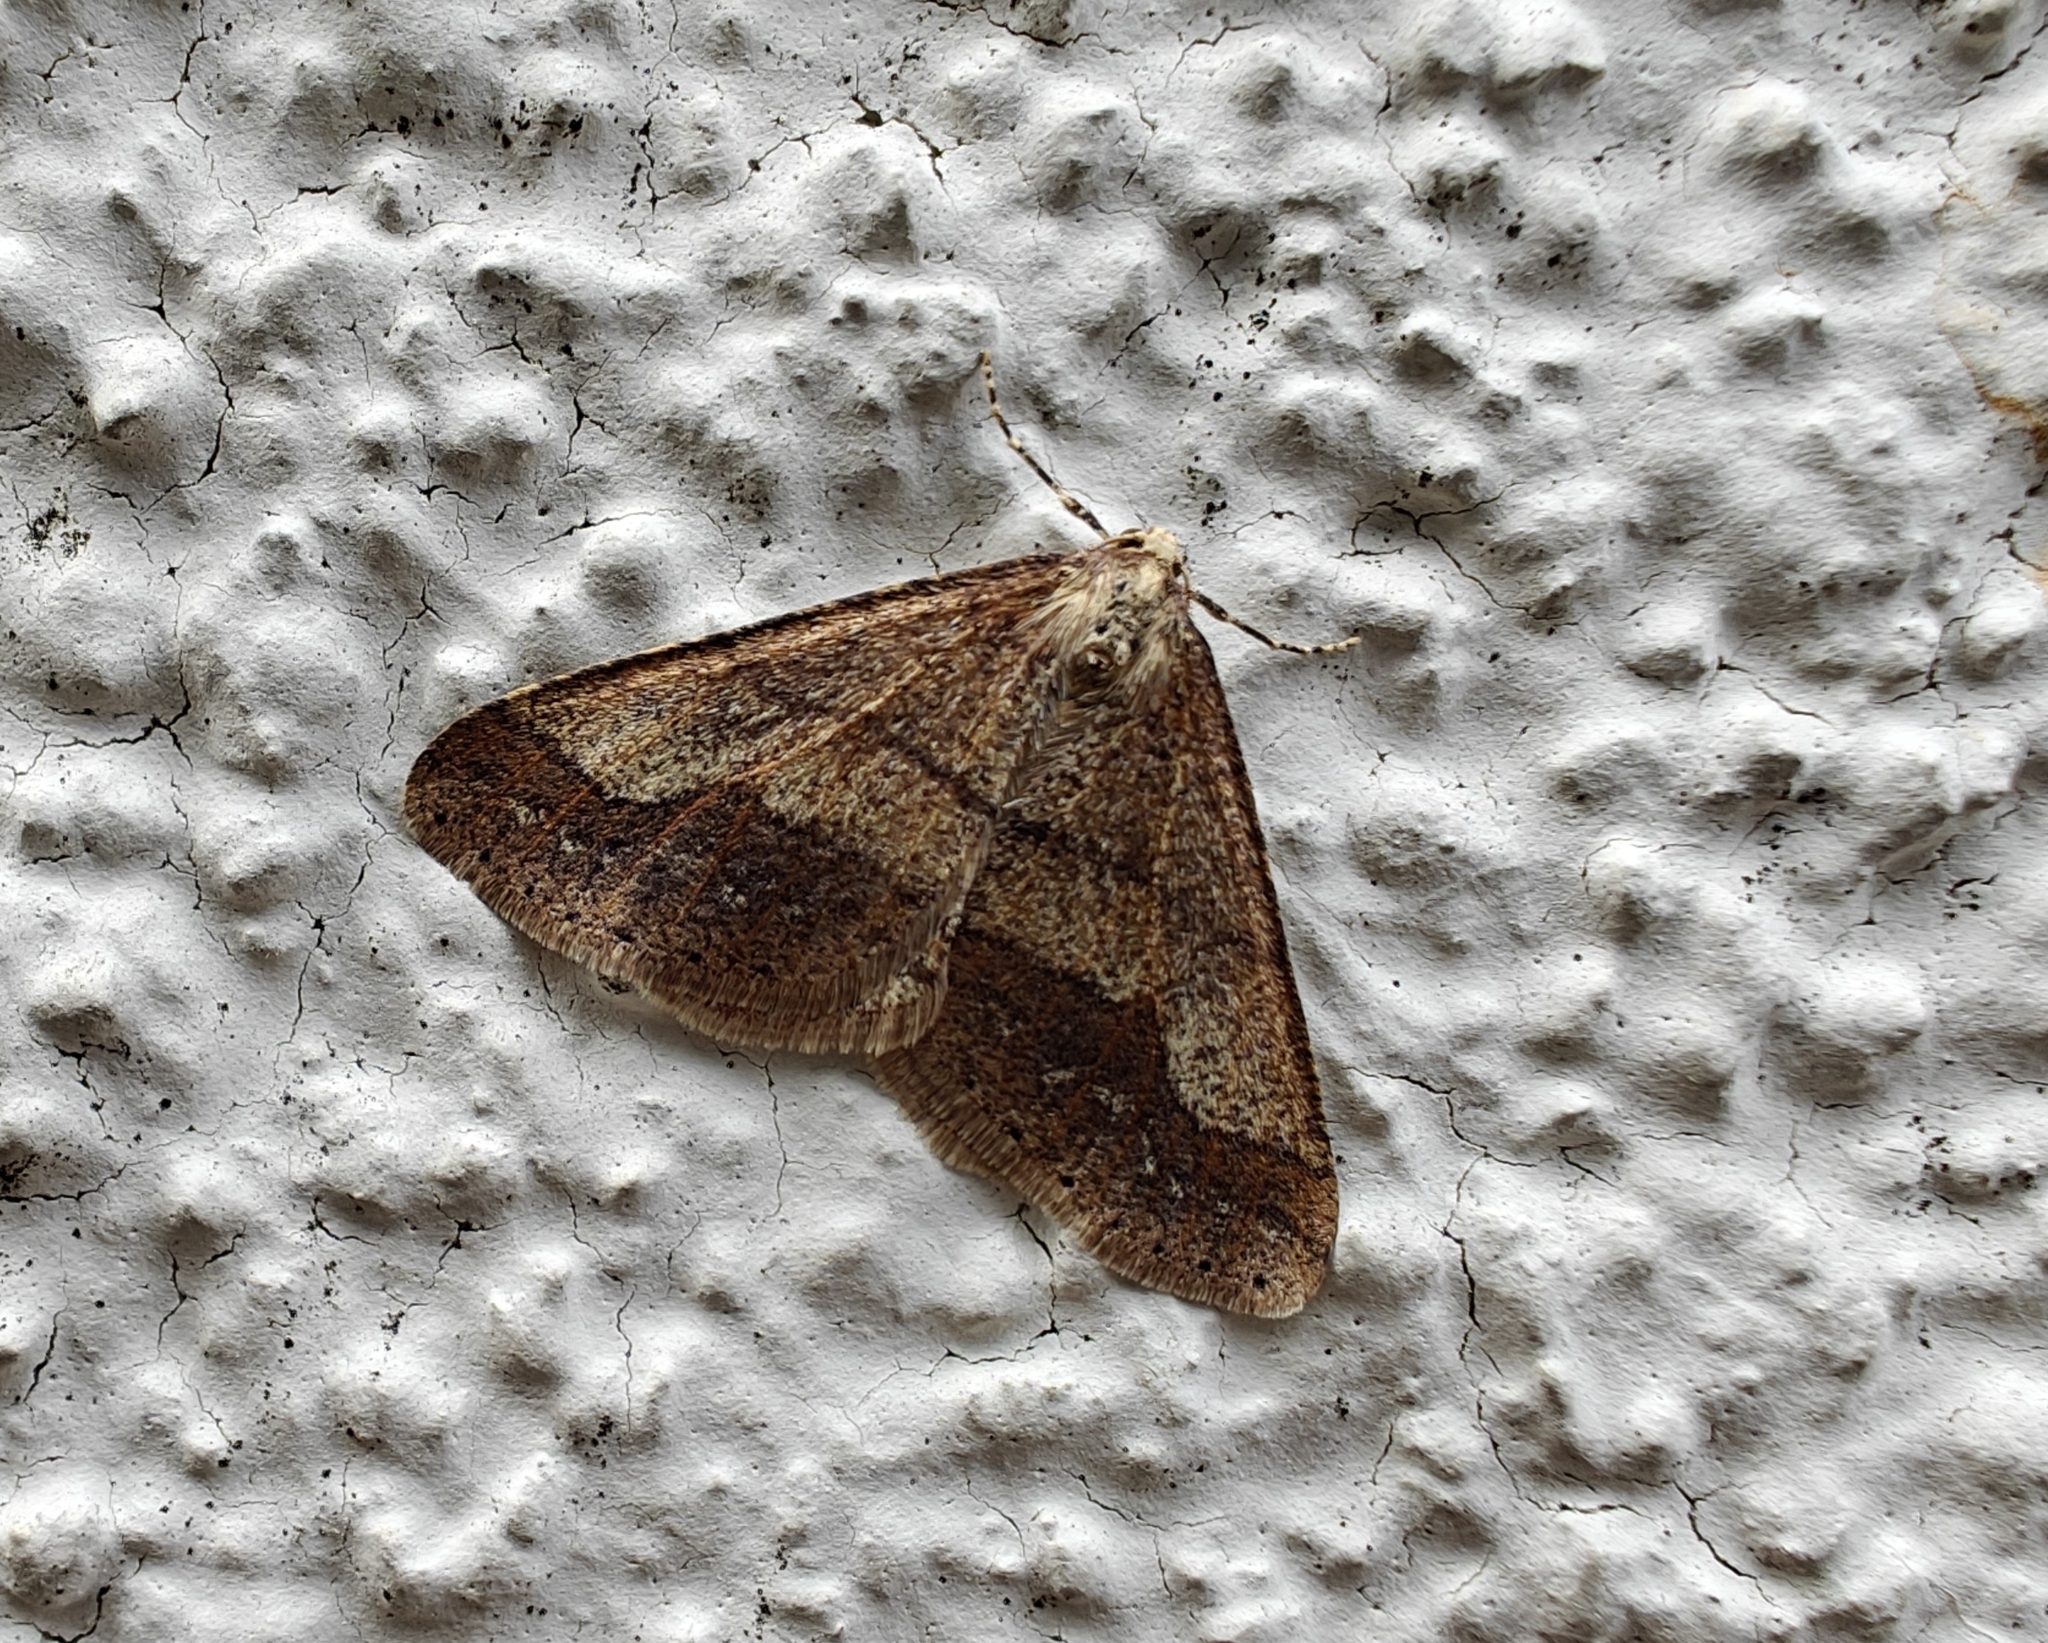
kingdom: Animalia
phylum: Arthropoda
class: Insecta
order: Lepidoptera
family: Geometridae
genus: Agriopis
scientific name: Agriopis marginaria
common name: Dotted border
